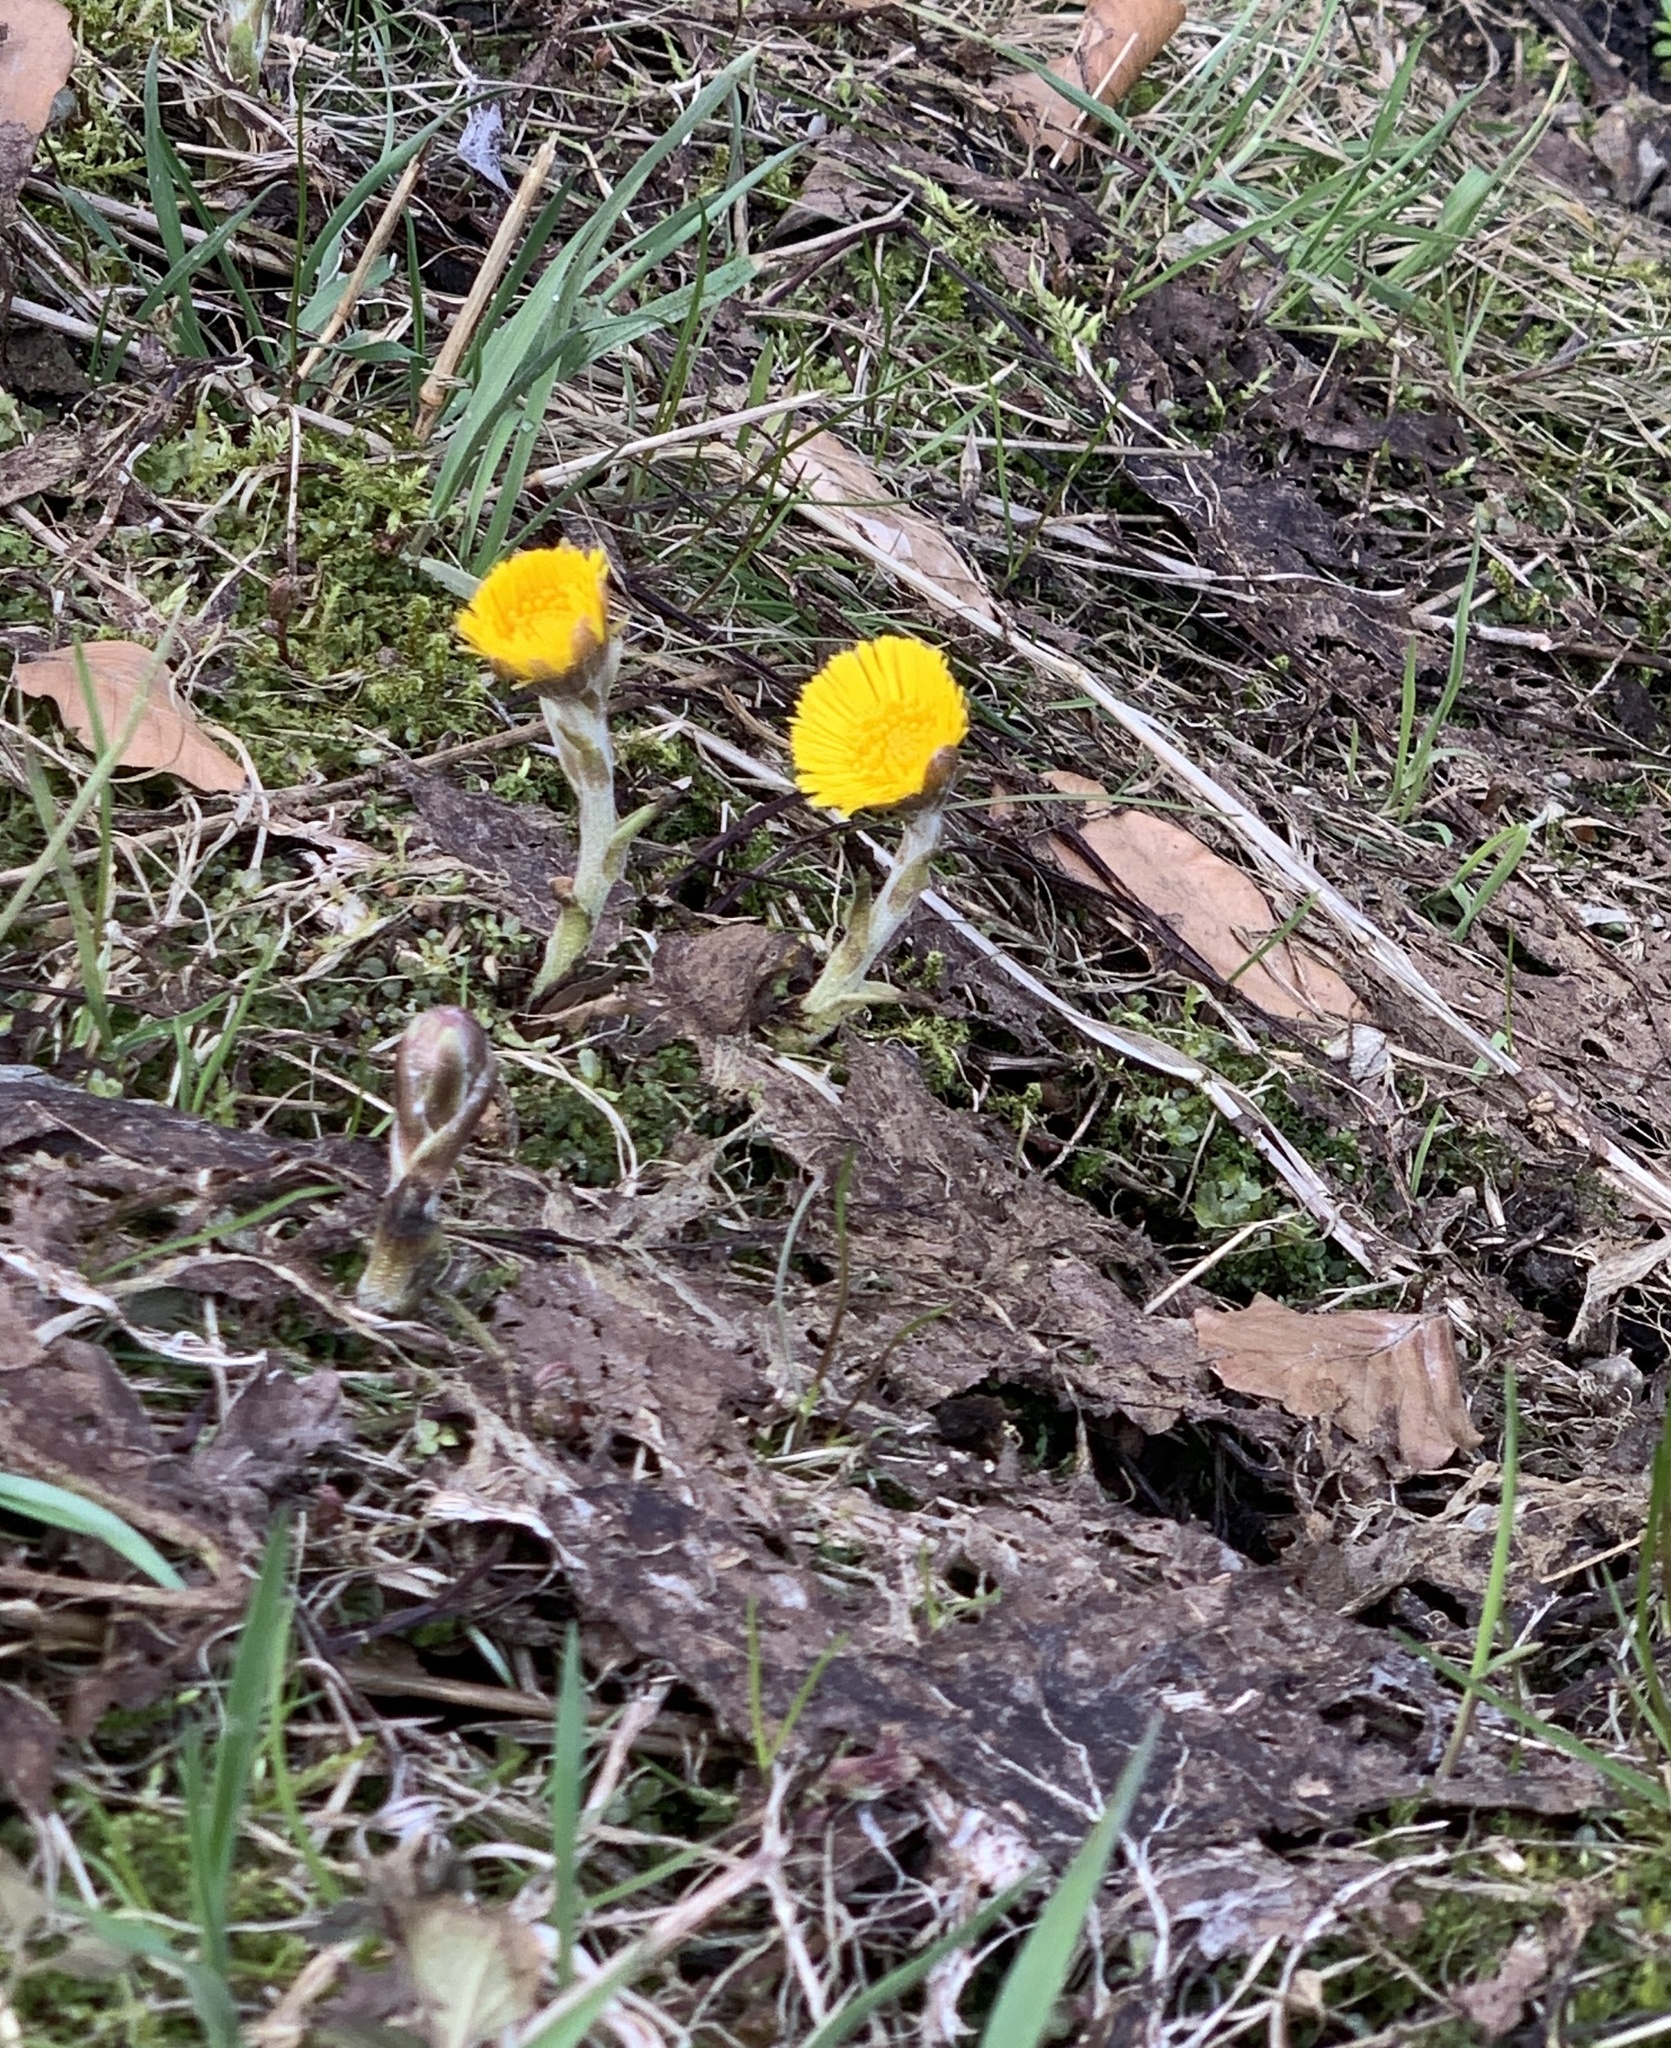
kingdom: Plantae
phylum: Tracheophyta
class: Magnoliopsida
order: Asterales
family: Asteraceae
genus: Tussilago
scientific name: Tussilago farfara
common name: Coltsfoot
